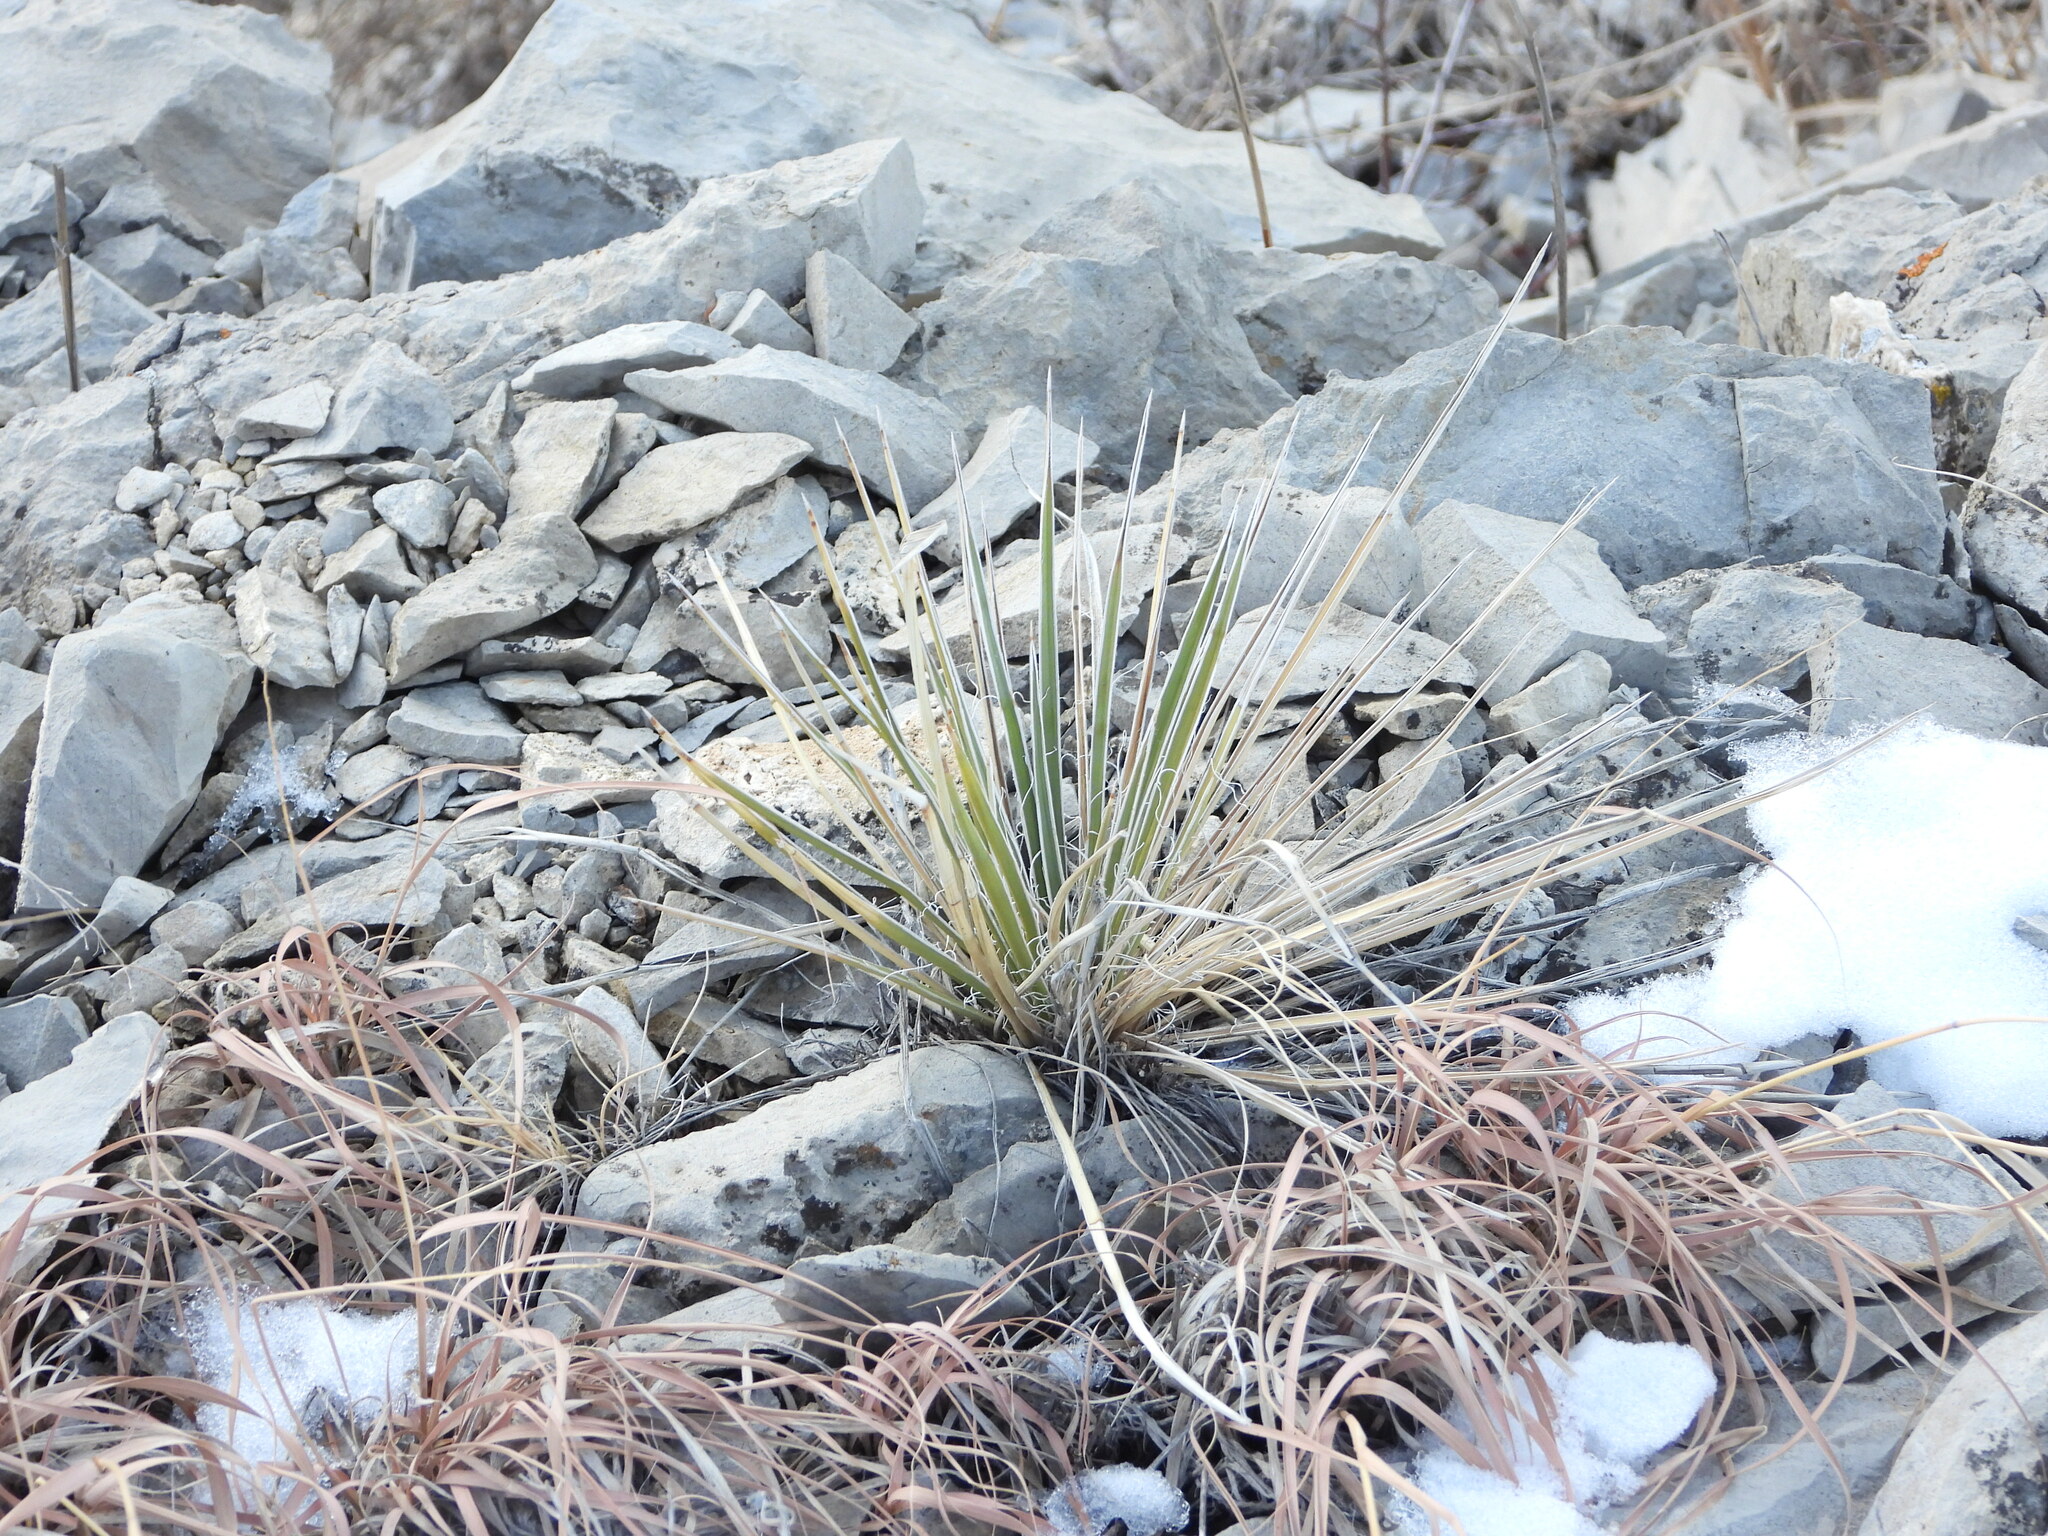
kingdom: Plantae
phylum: Tracheophyta
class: Liliopsida
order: Asparagales
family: Asparagaceae
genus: Yucca
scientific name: Yucca glauca
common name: Great plains yucca
